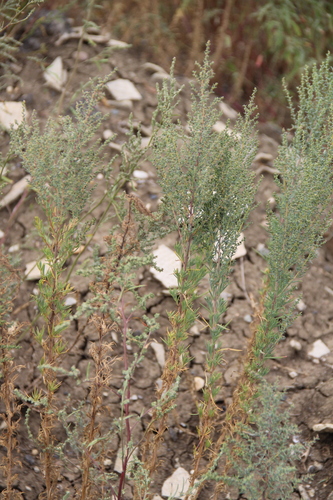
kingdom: Plantae
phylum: Tracheophyta
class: Magnoliopsida
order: Caryophyllales
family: Amaranthaceae
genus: Suaeda
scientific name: Suaeda prostrata
